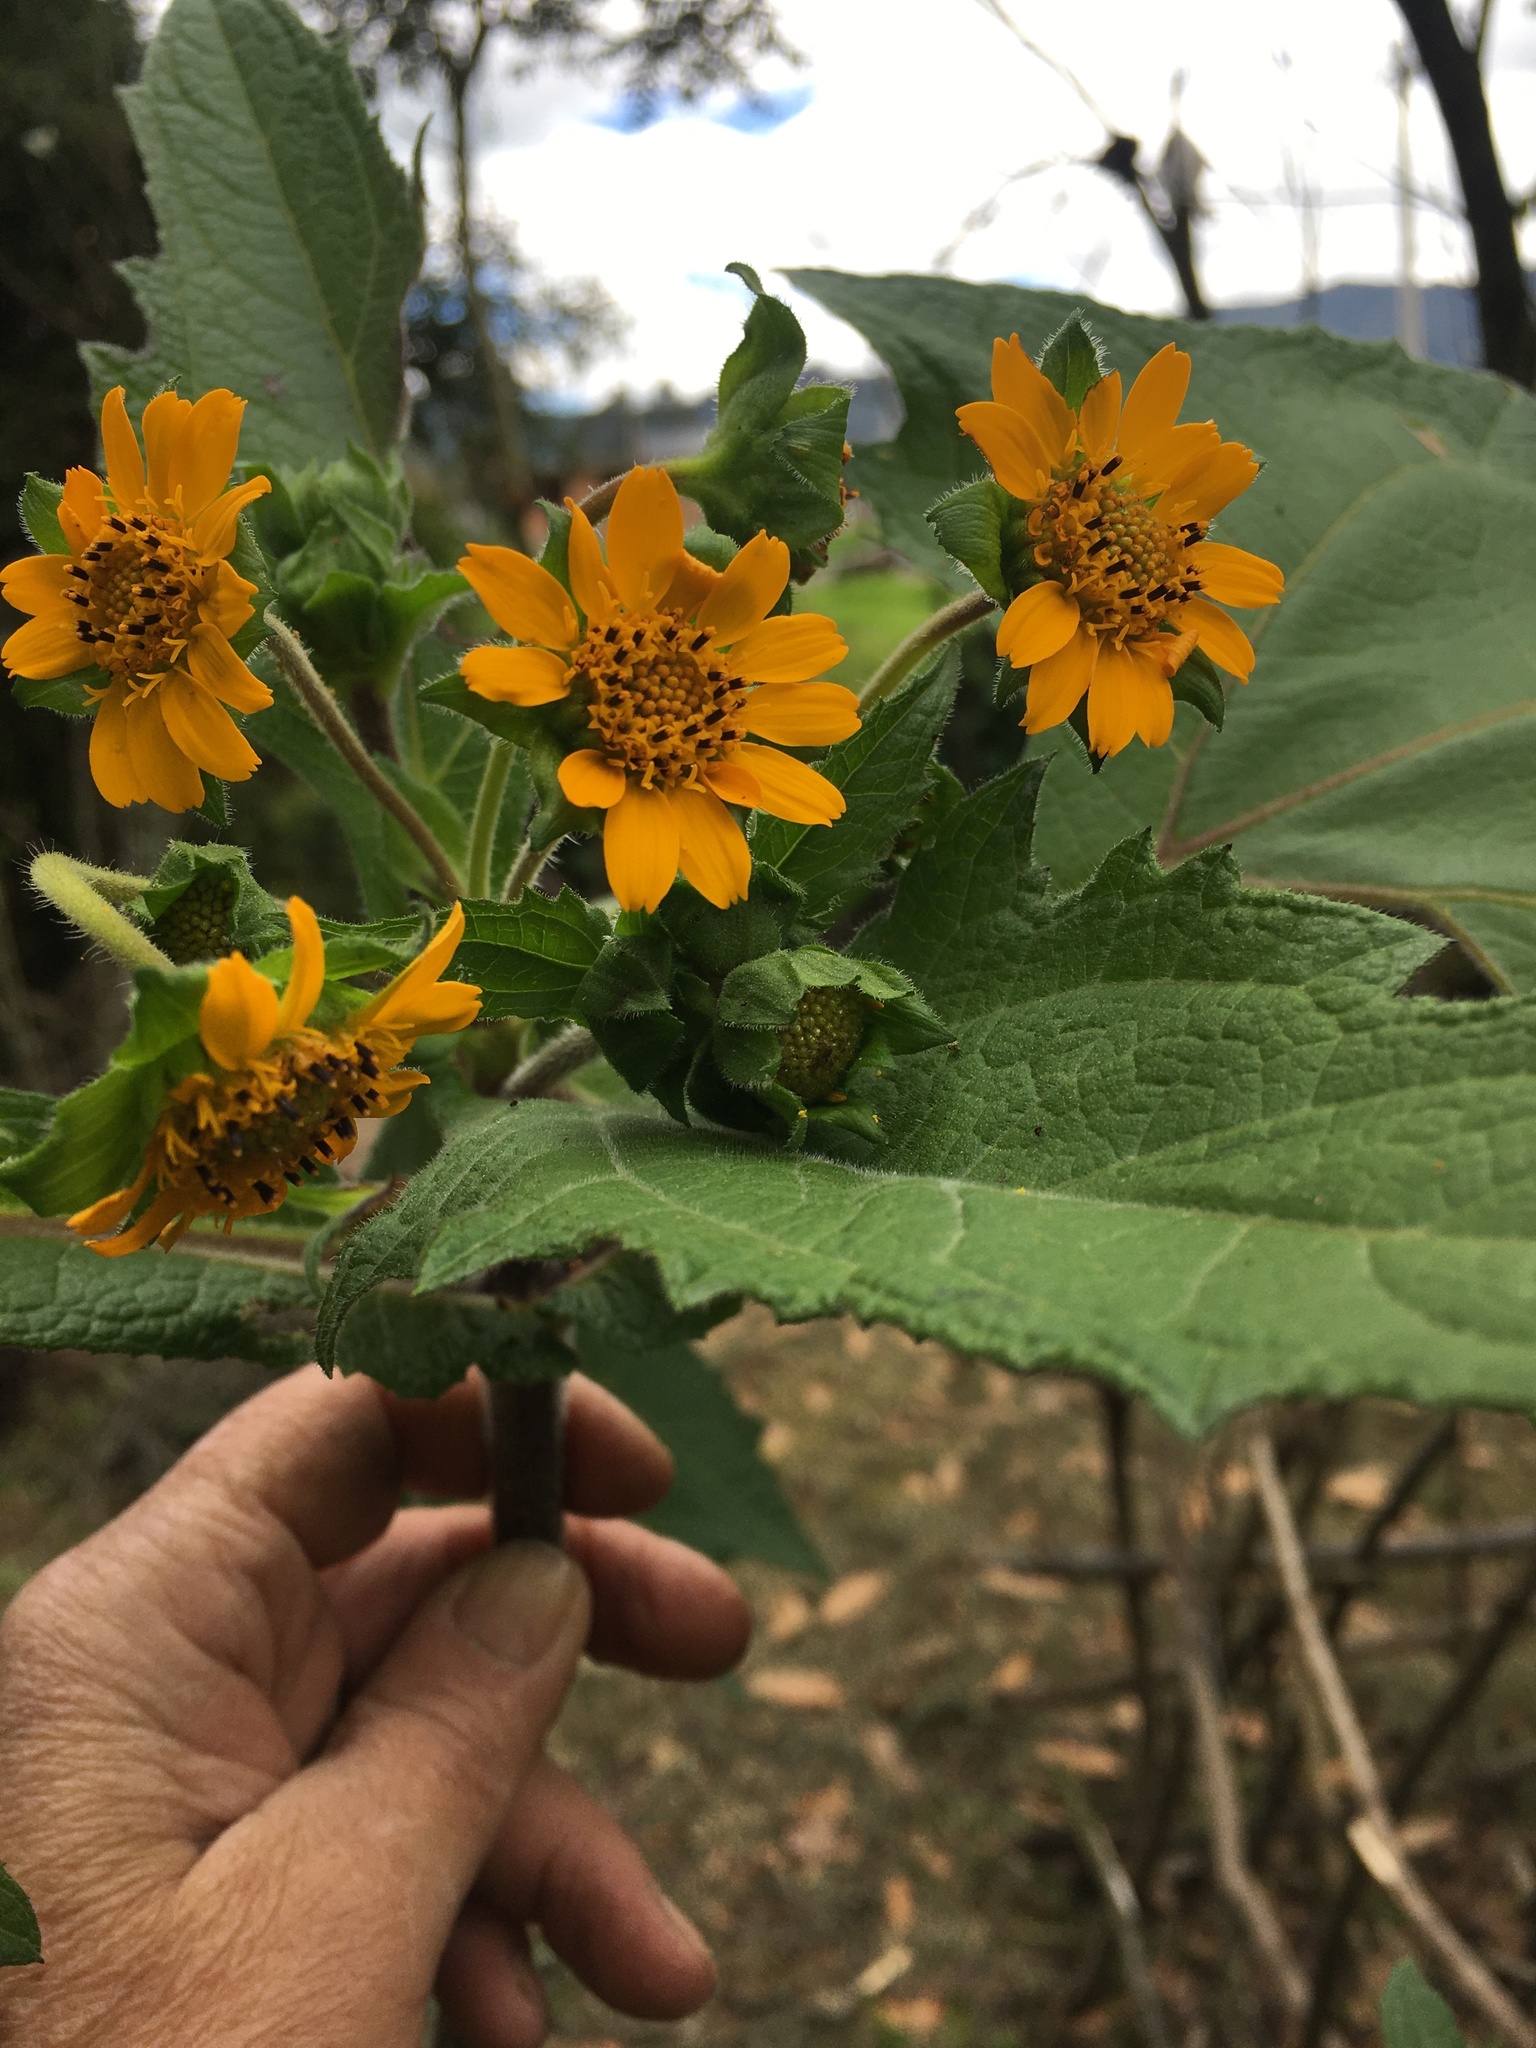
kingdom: Plantae
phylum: Tracheophyta
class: Magnoliopsida
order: Asterales
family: Asteraceae
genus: Smallanthus
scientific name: Smallanthus sonchifolius
